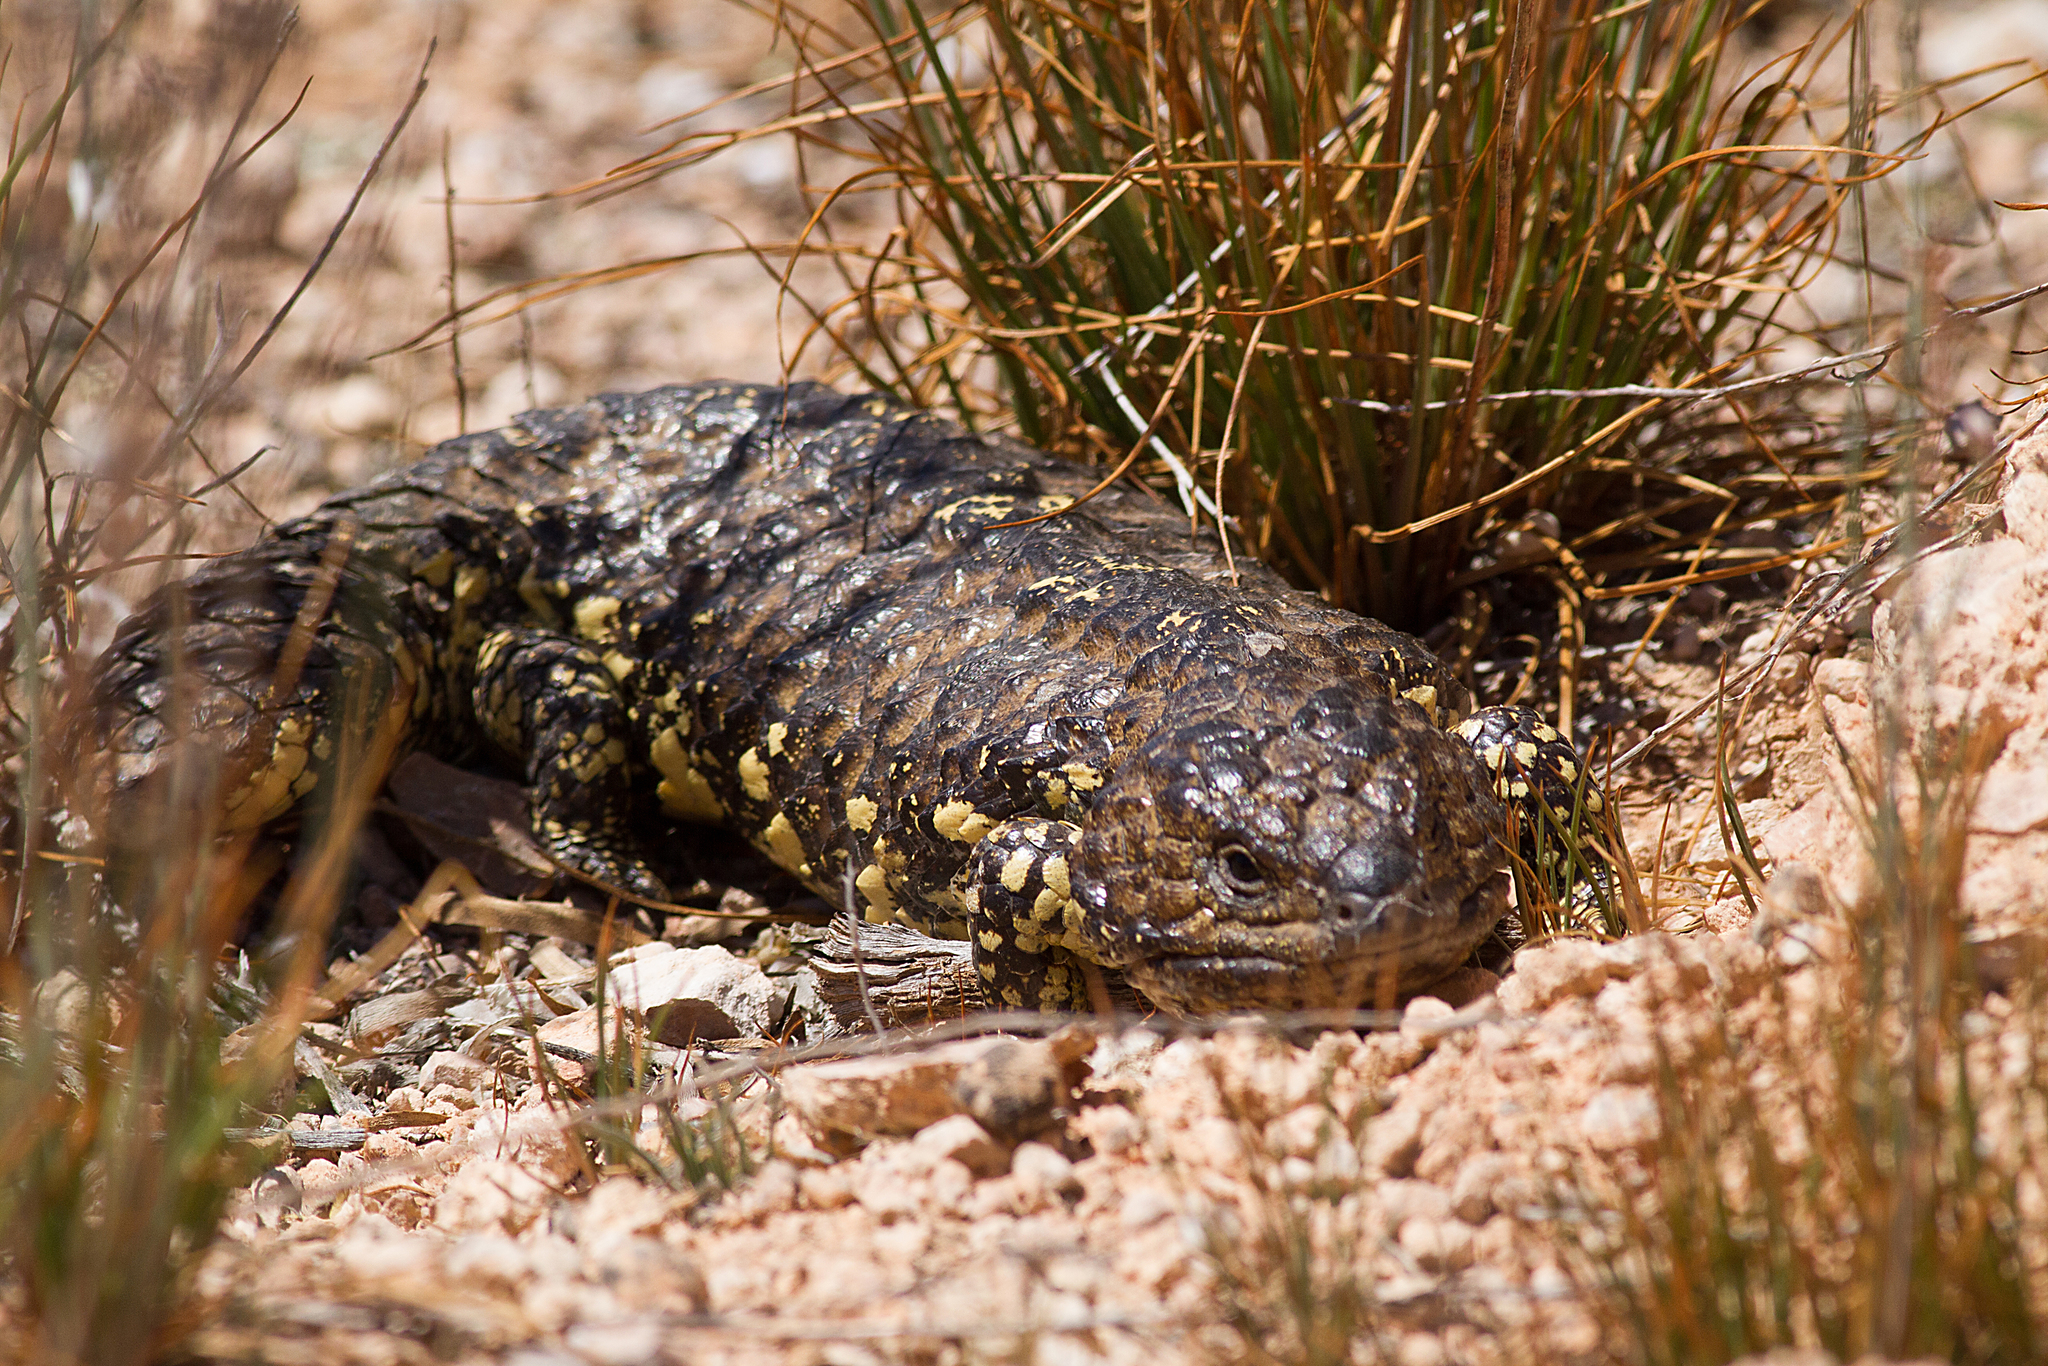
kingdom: Animalia
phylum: Chordata
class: Squamata
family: Scincidae
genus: Tiliqua
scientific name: Tiliqua rugosa
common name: Pinecone lizard
